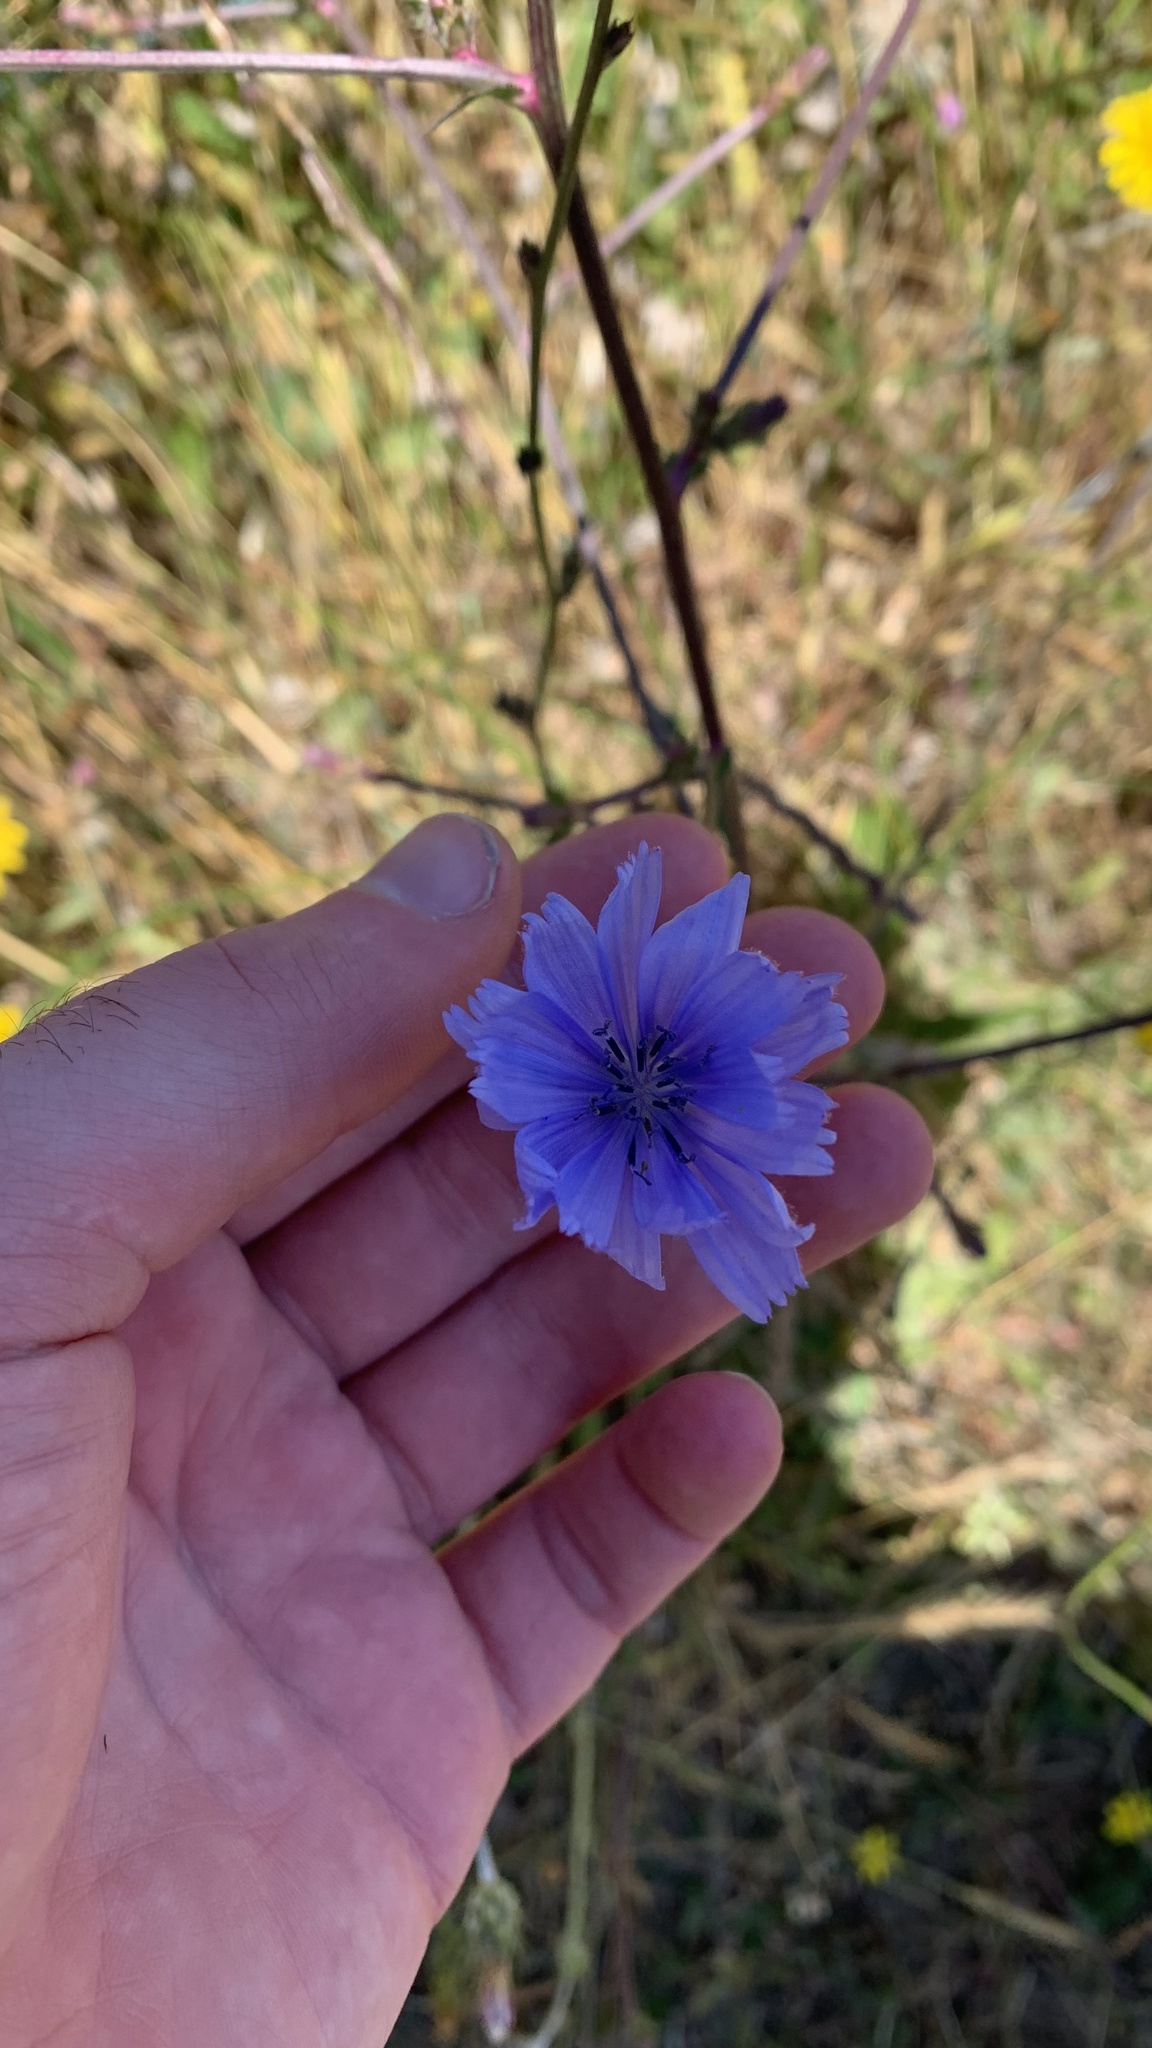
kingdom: Plantae
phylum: Tracheophyta
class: Magnoliopsida
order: Asterales
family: Asteraceae
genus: Cichorium
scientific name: Cichorium intybus
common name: Chicory
